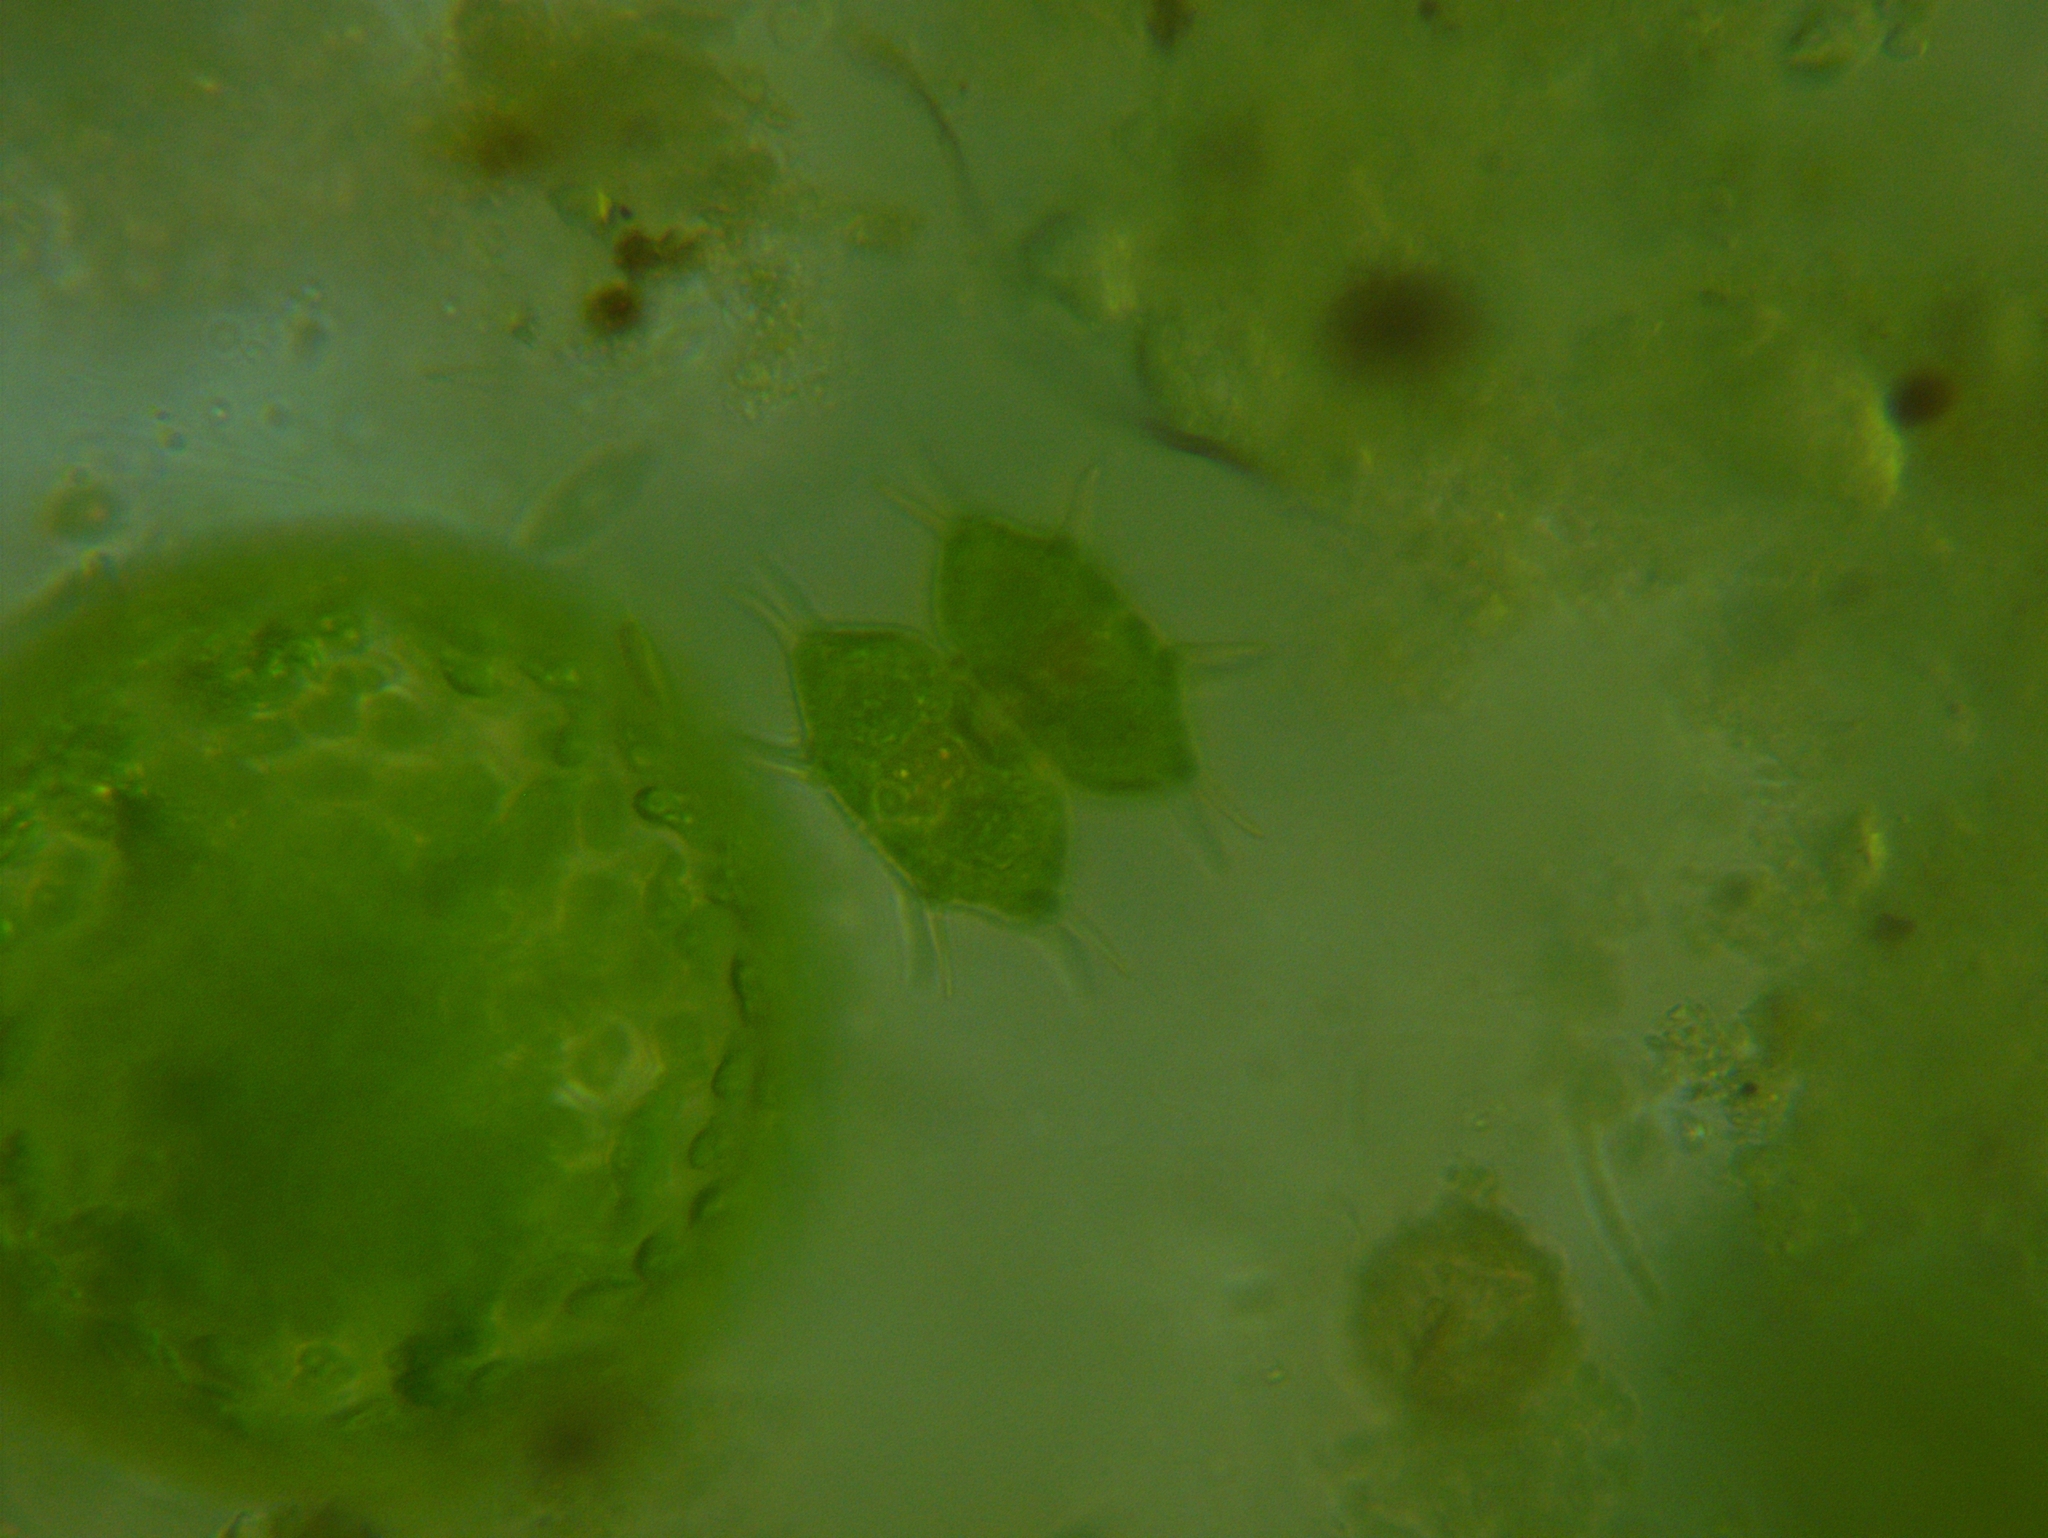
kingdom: Plantae
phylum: Charophyta
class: Conjugatophyceae
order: Desmidiales
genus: Xanthidium
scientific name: Xanthidium antilopaeum
